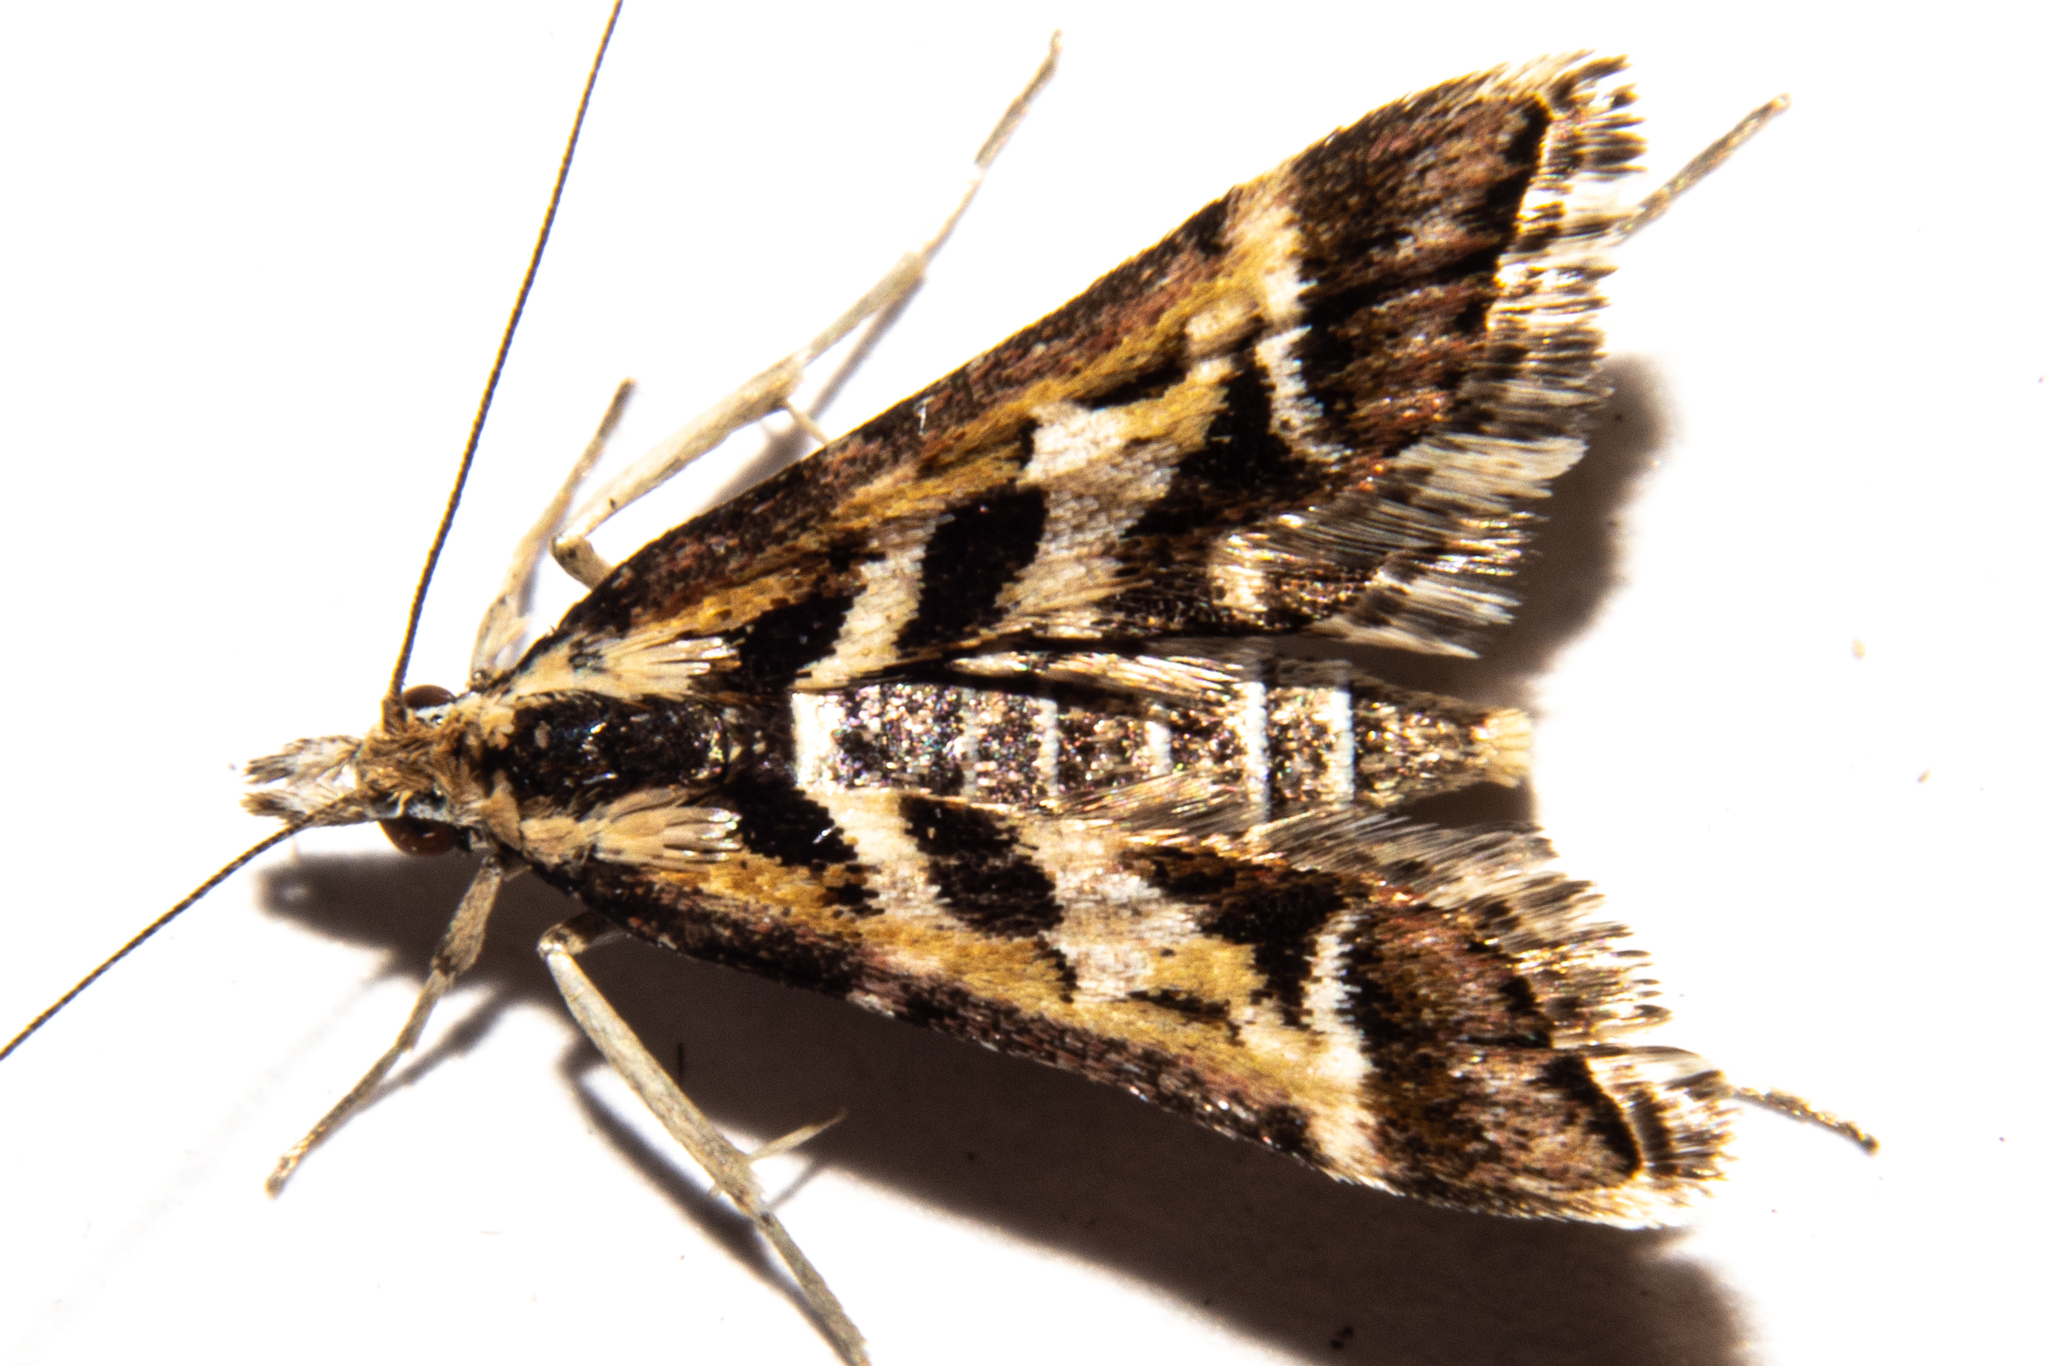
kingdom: Animalia
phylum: Arthropoda
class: Insecta
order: Lepidoptera
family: Crambidae
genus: Diasemia
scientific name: Diasemia grammalis
